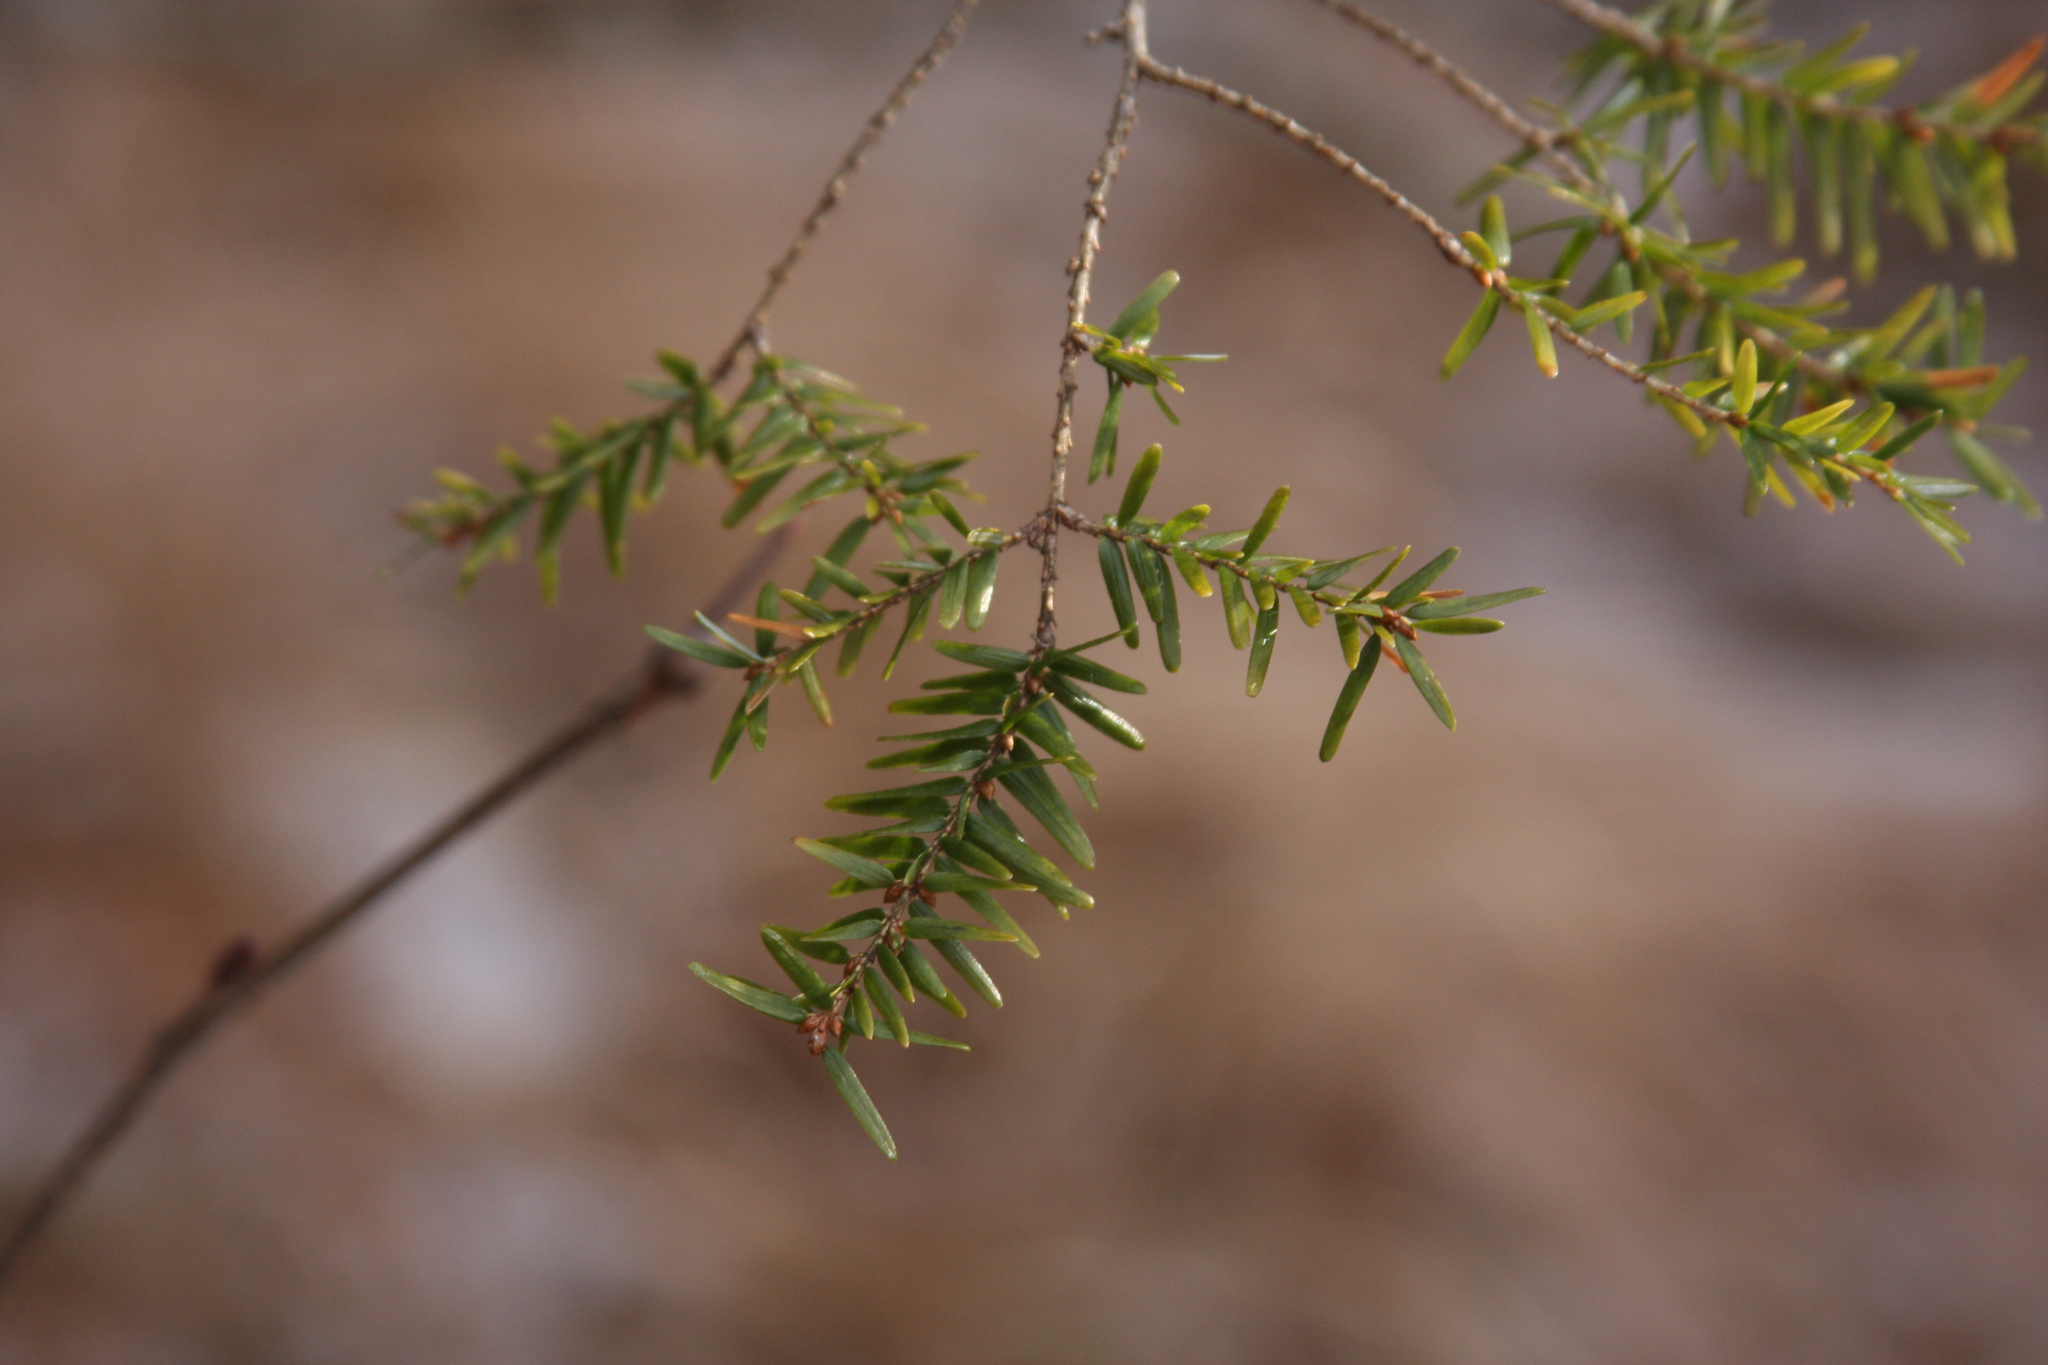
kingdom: Plantae
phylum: Tracheophyta
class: Pinopsida
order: Pinales
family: Pinaceae
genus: Tsuga
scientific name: Tsuga canadensis
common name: Eastern hemlock
